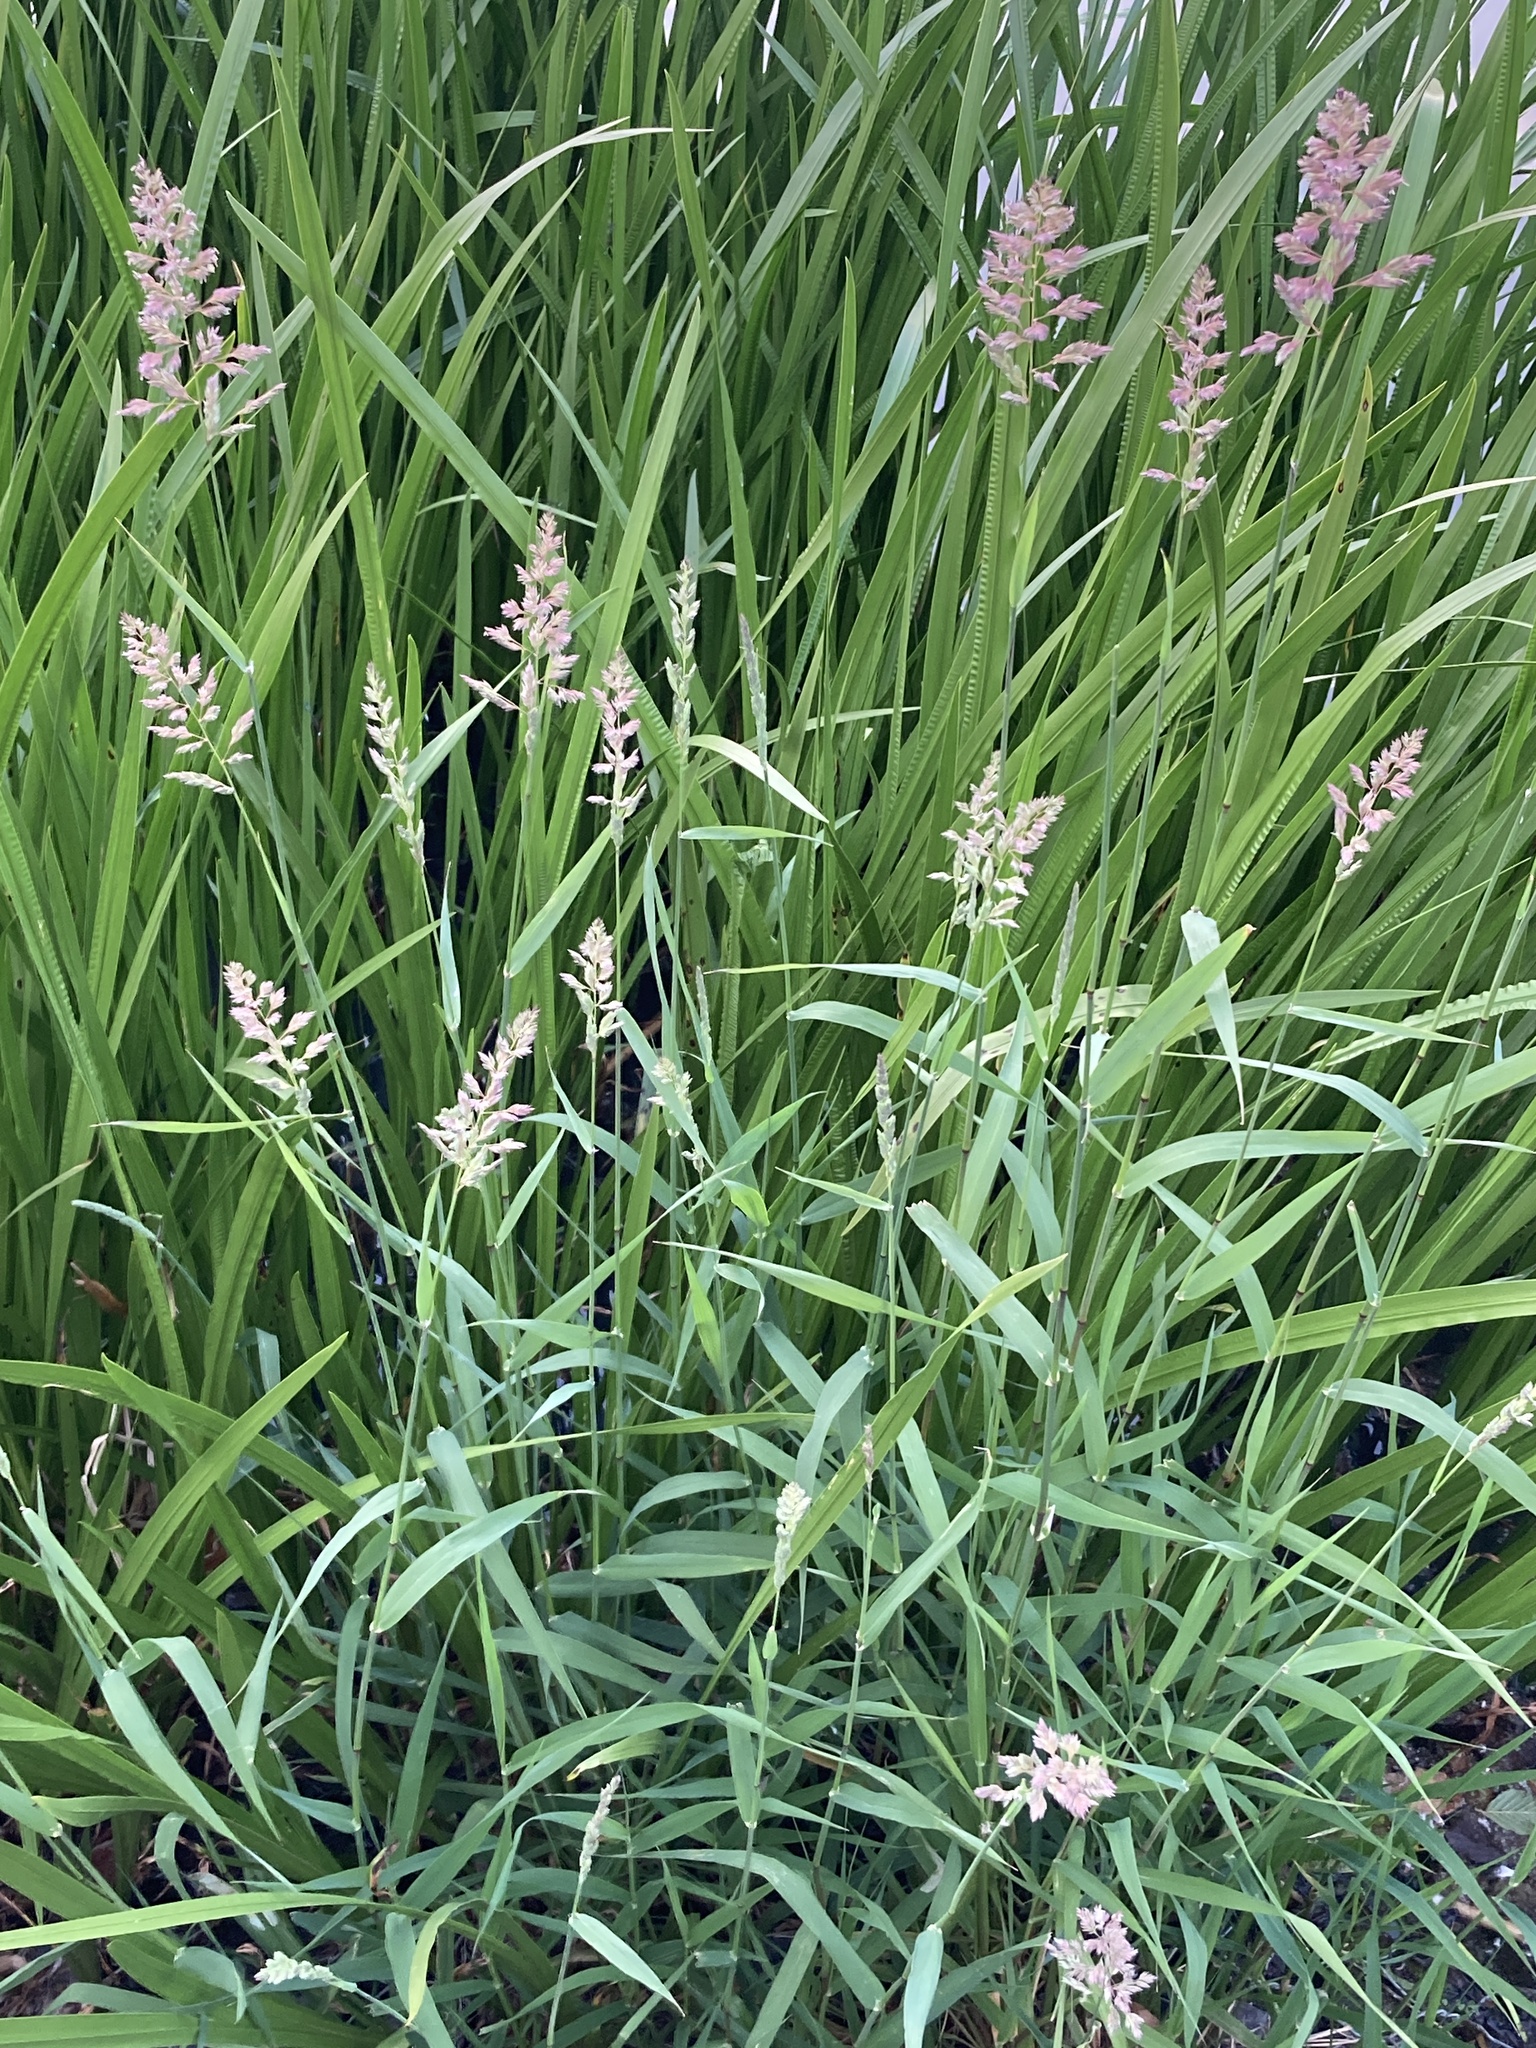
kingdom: Plantae
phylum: Tracheophyta
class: Liliopsida
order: Poales
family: Poaceae
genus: Phalaris
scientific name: Phalaris arundinacea
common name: Reed canary-grass
